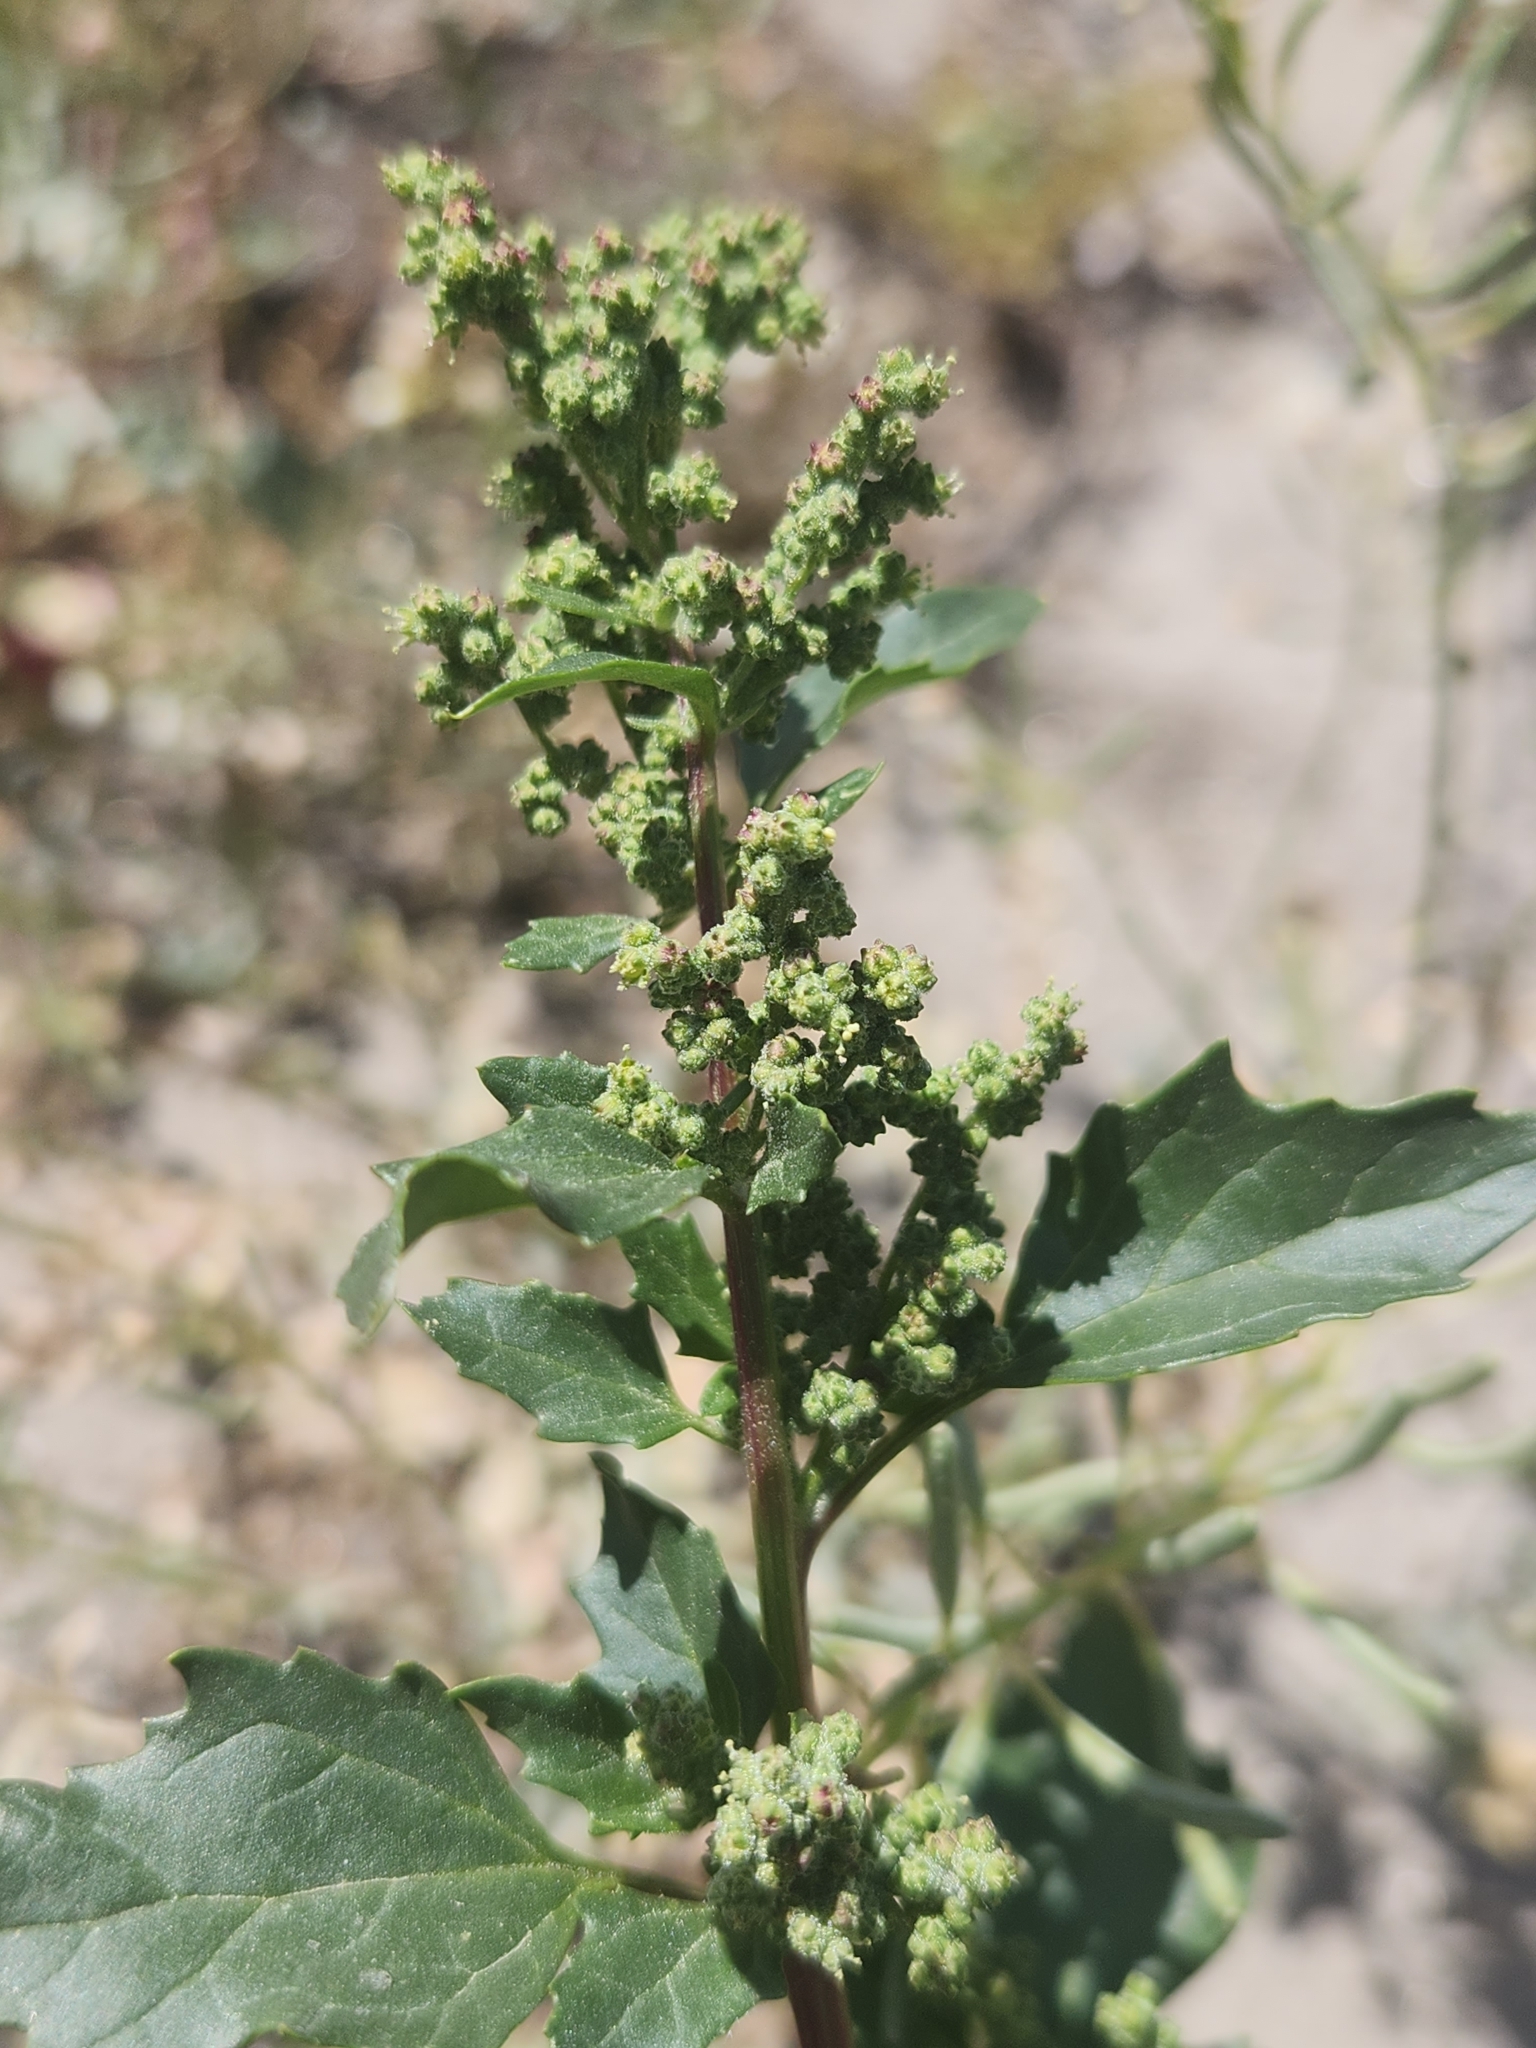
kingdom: Plantae
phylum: Tracheophyta
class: Magnoliopsida
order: Caryophyllales
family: Amaranthaceae
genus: Chenopodiastrum
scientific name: Chenopodiastrum murale
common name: Sowbane
